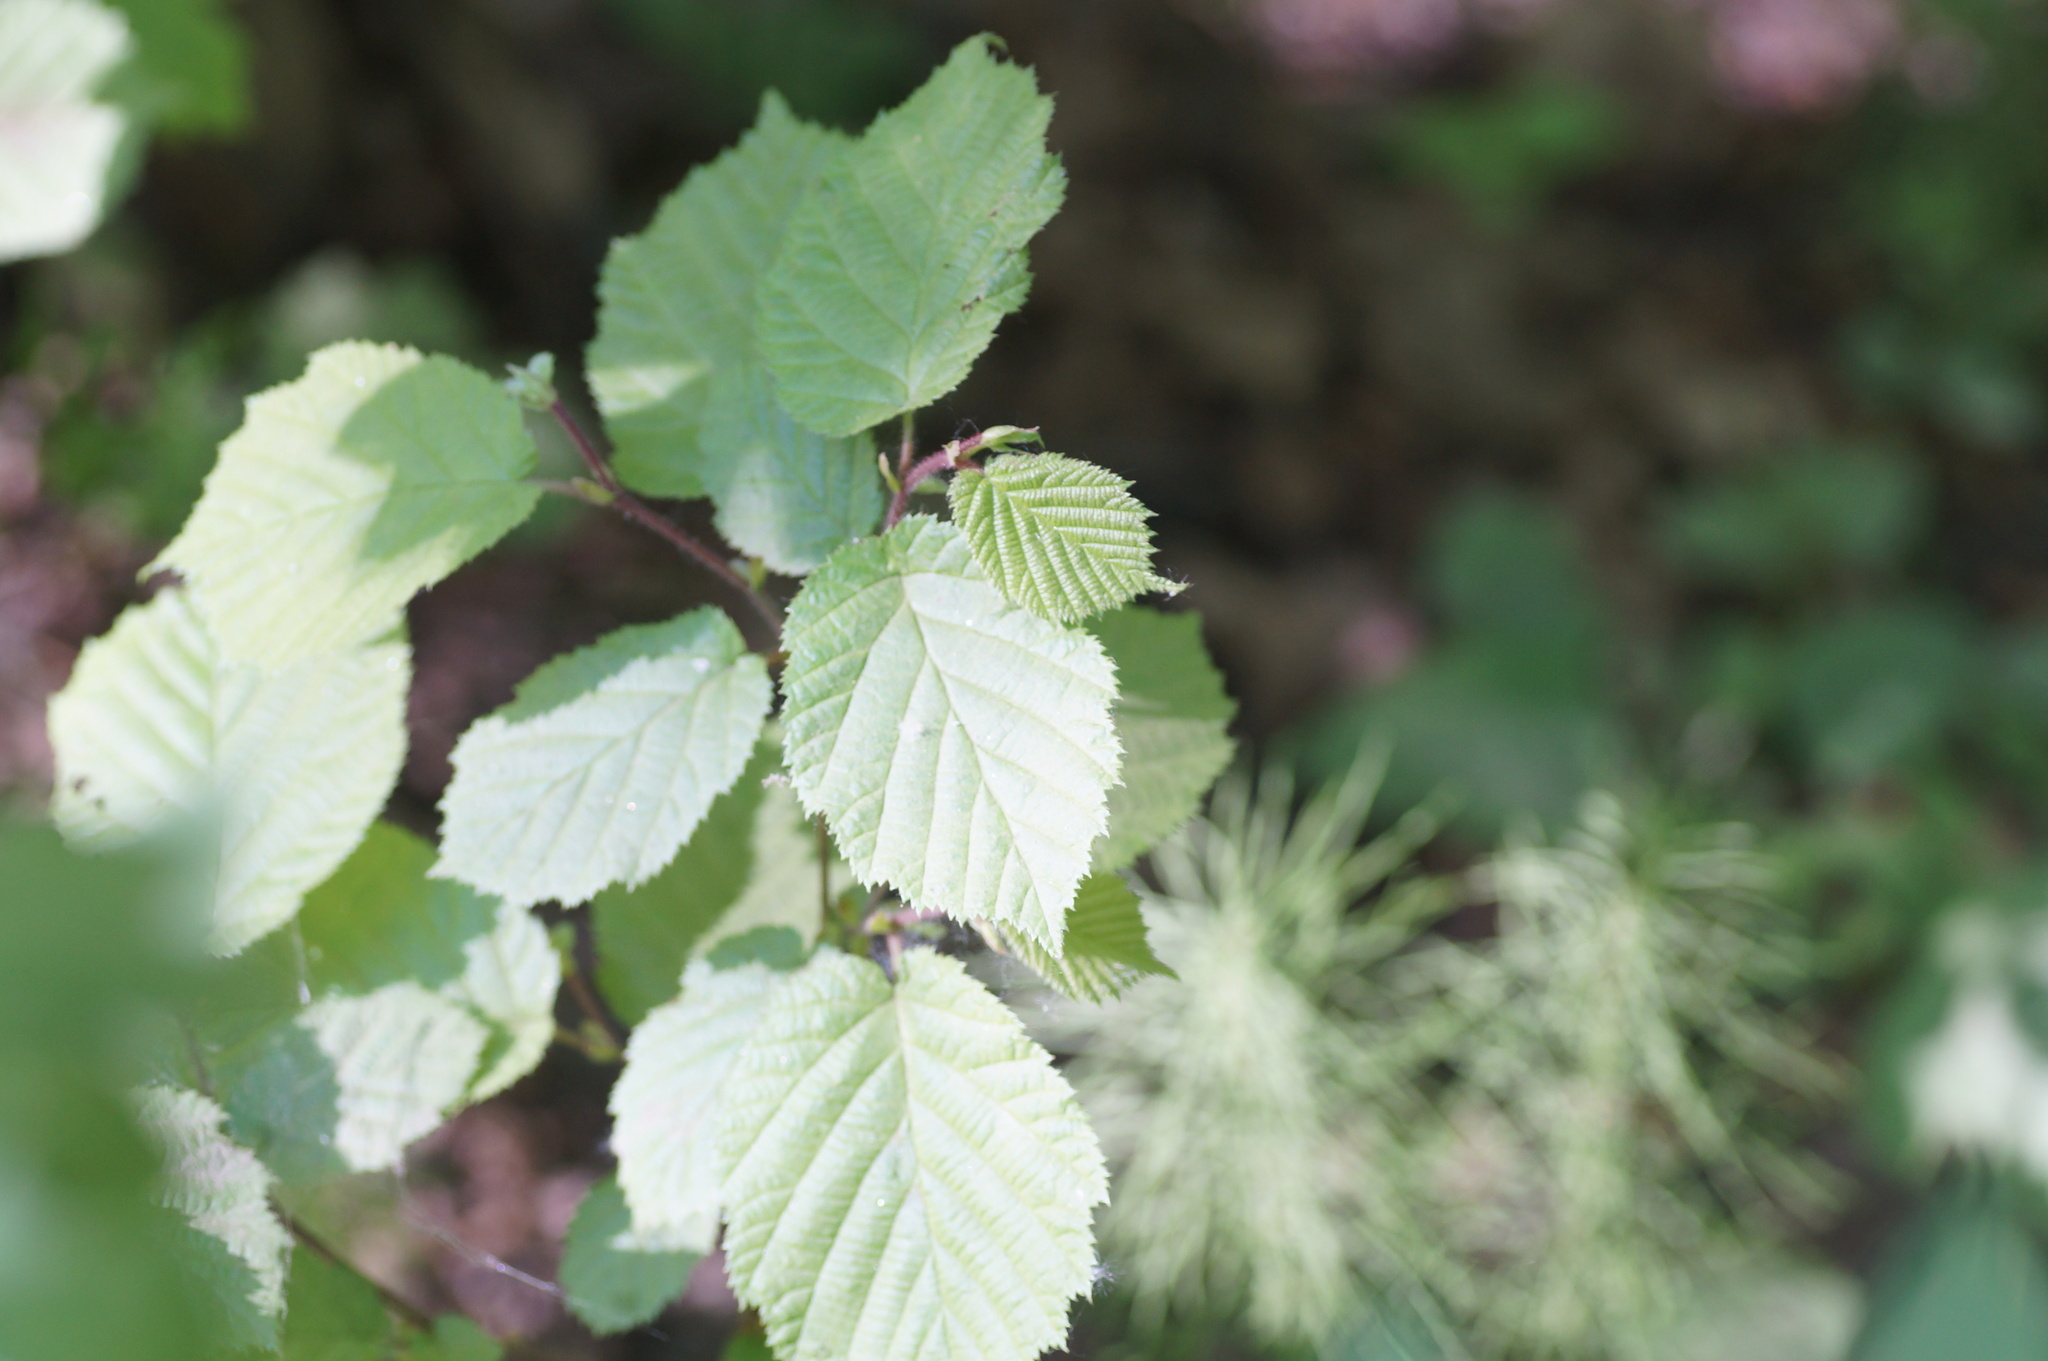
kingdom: Plantae
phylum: Tracheophyta
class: Magnoliopsida
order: Fagales
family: Betulaceae
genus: Corylus
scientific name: Corylus avellana
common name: European hazel
